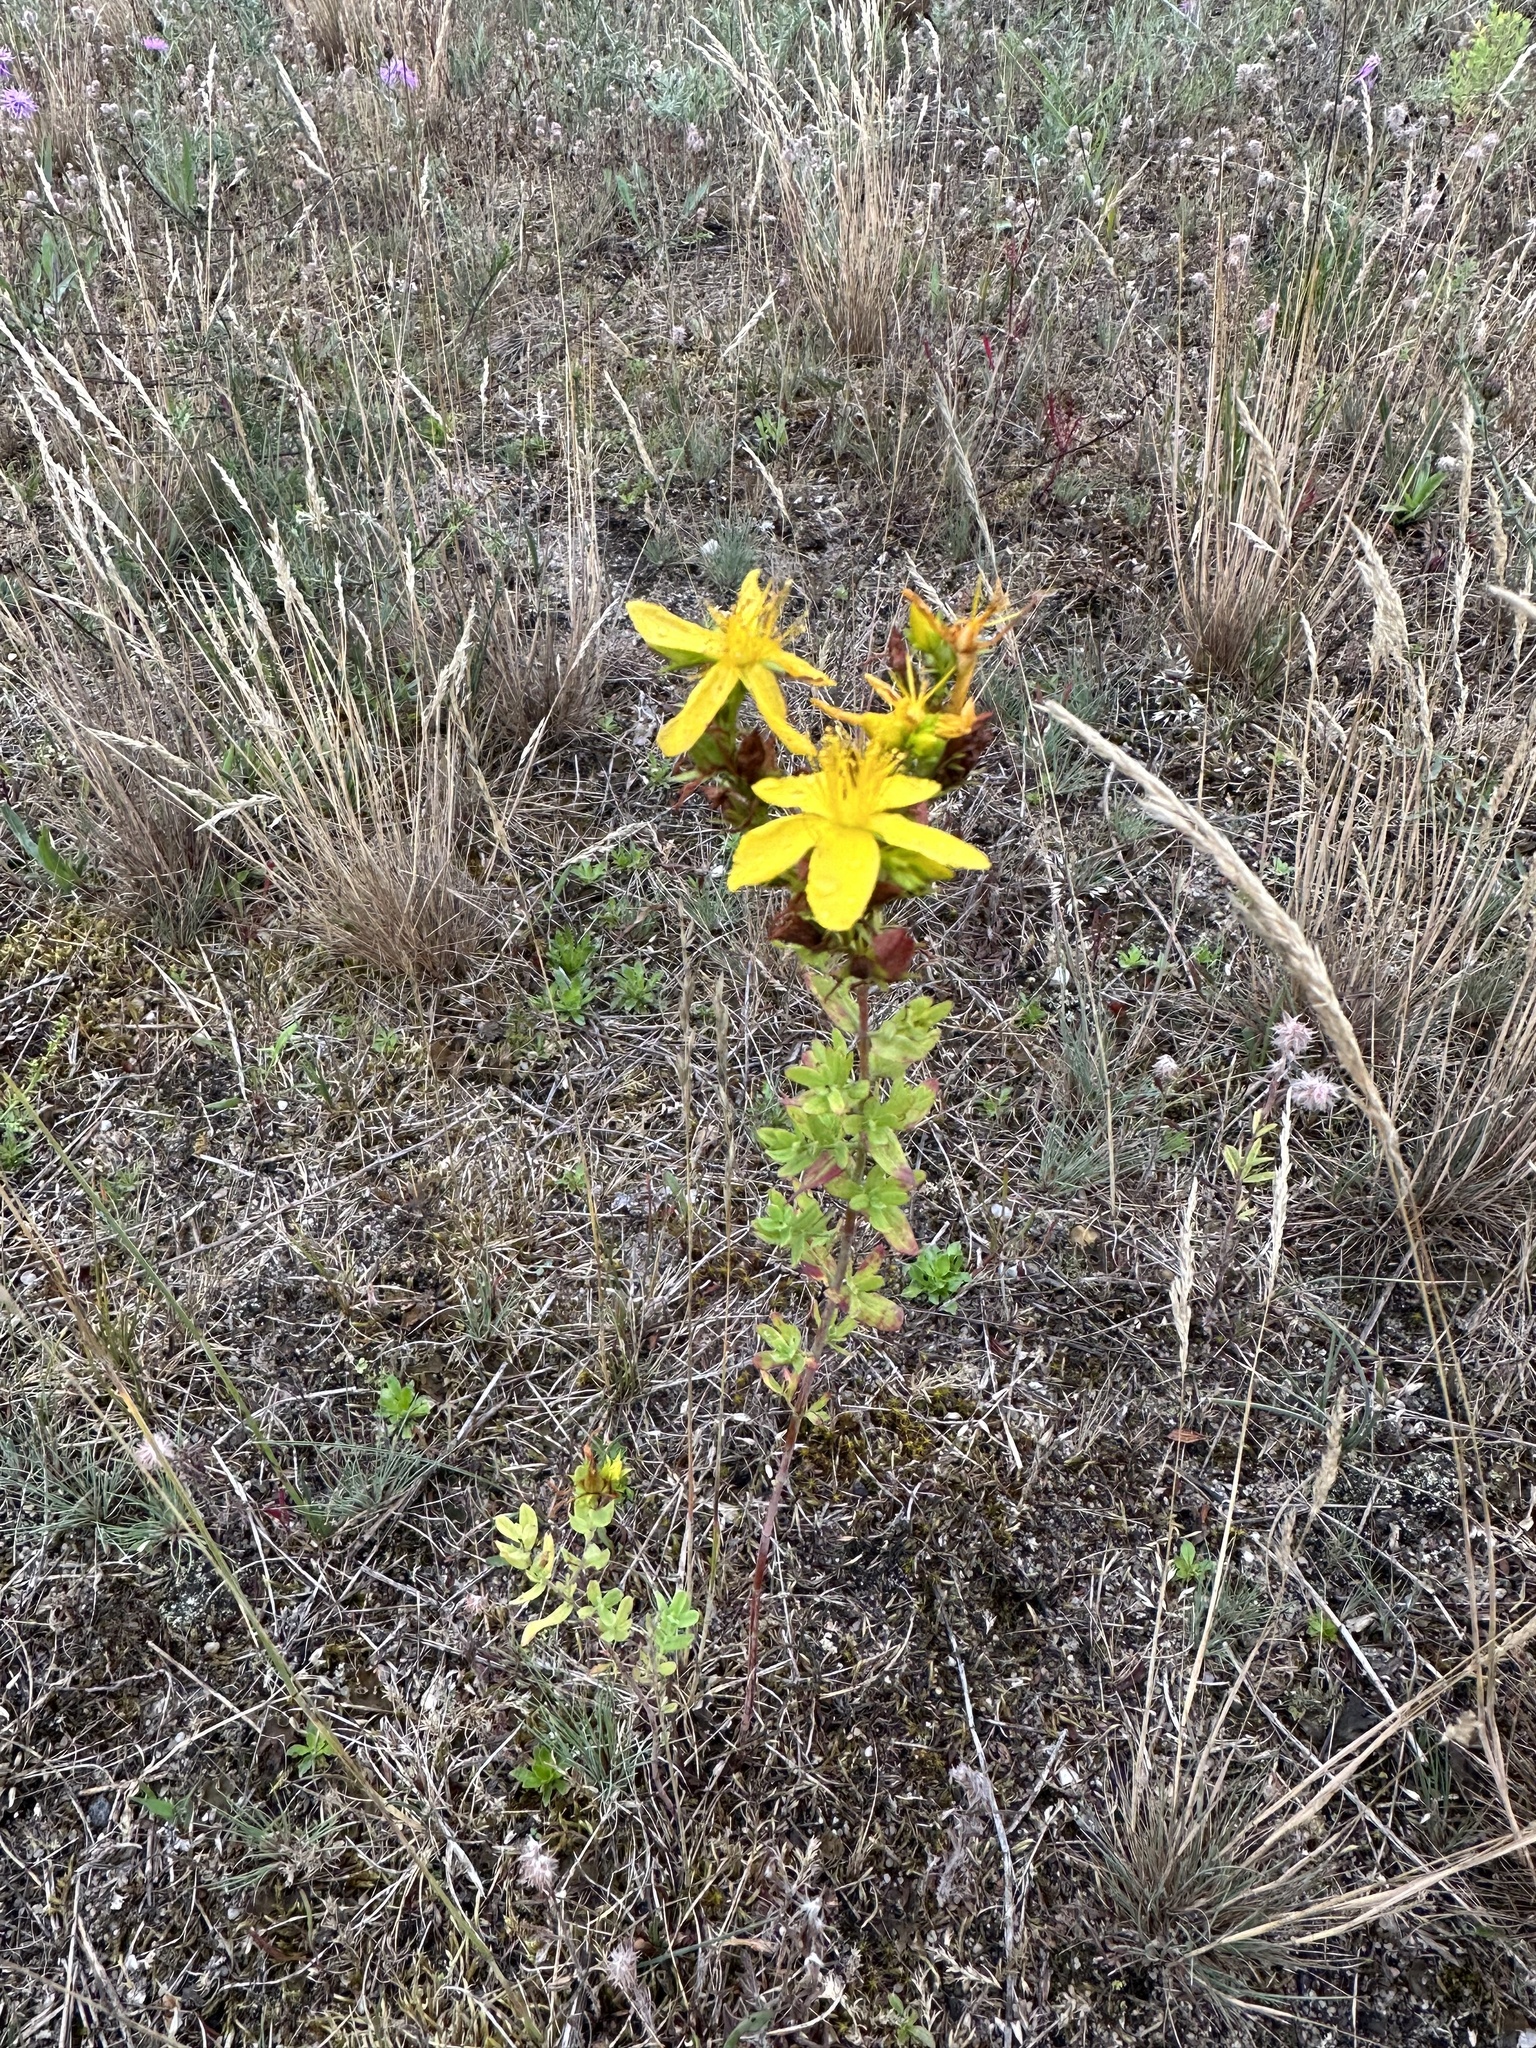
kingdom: Plantae
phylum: Tracheophyta
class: Magnoliopsida
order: Malpighiales
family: Hypericaceae
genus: Hypericum
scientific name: Hypericum perforatum
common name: Common st. johnswort
